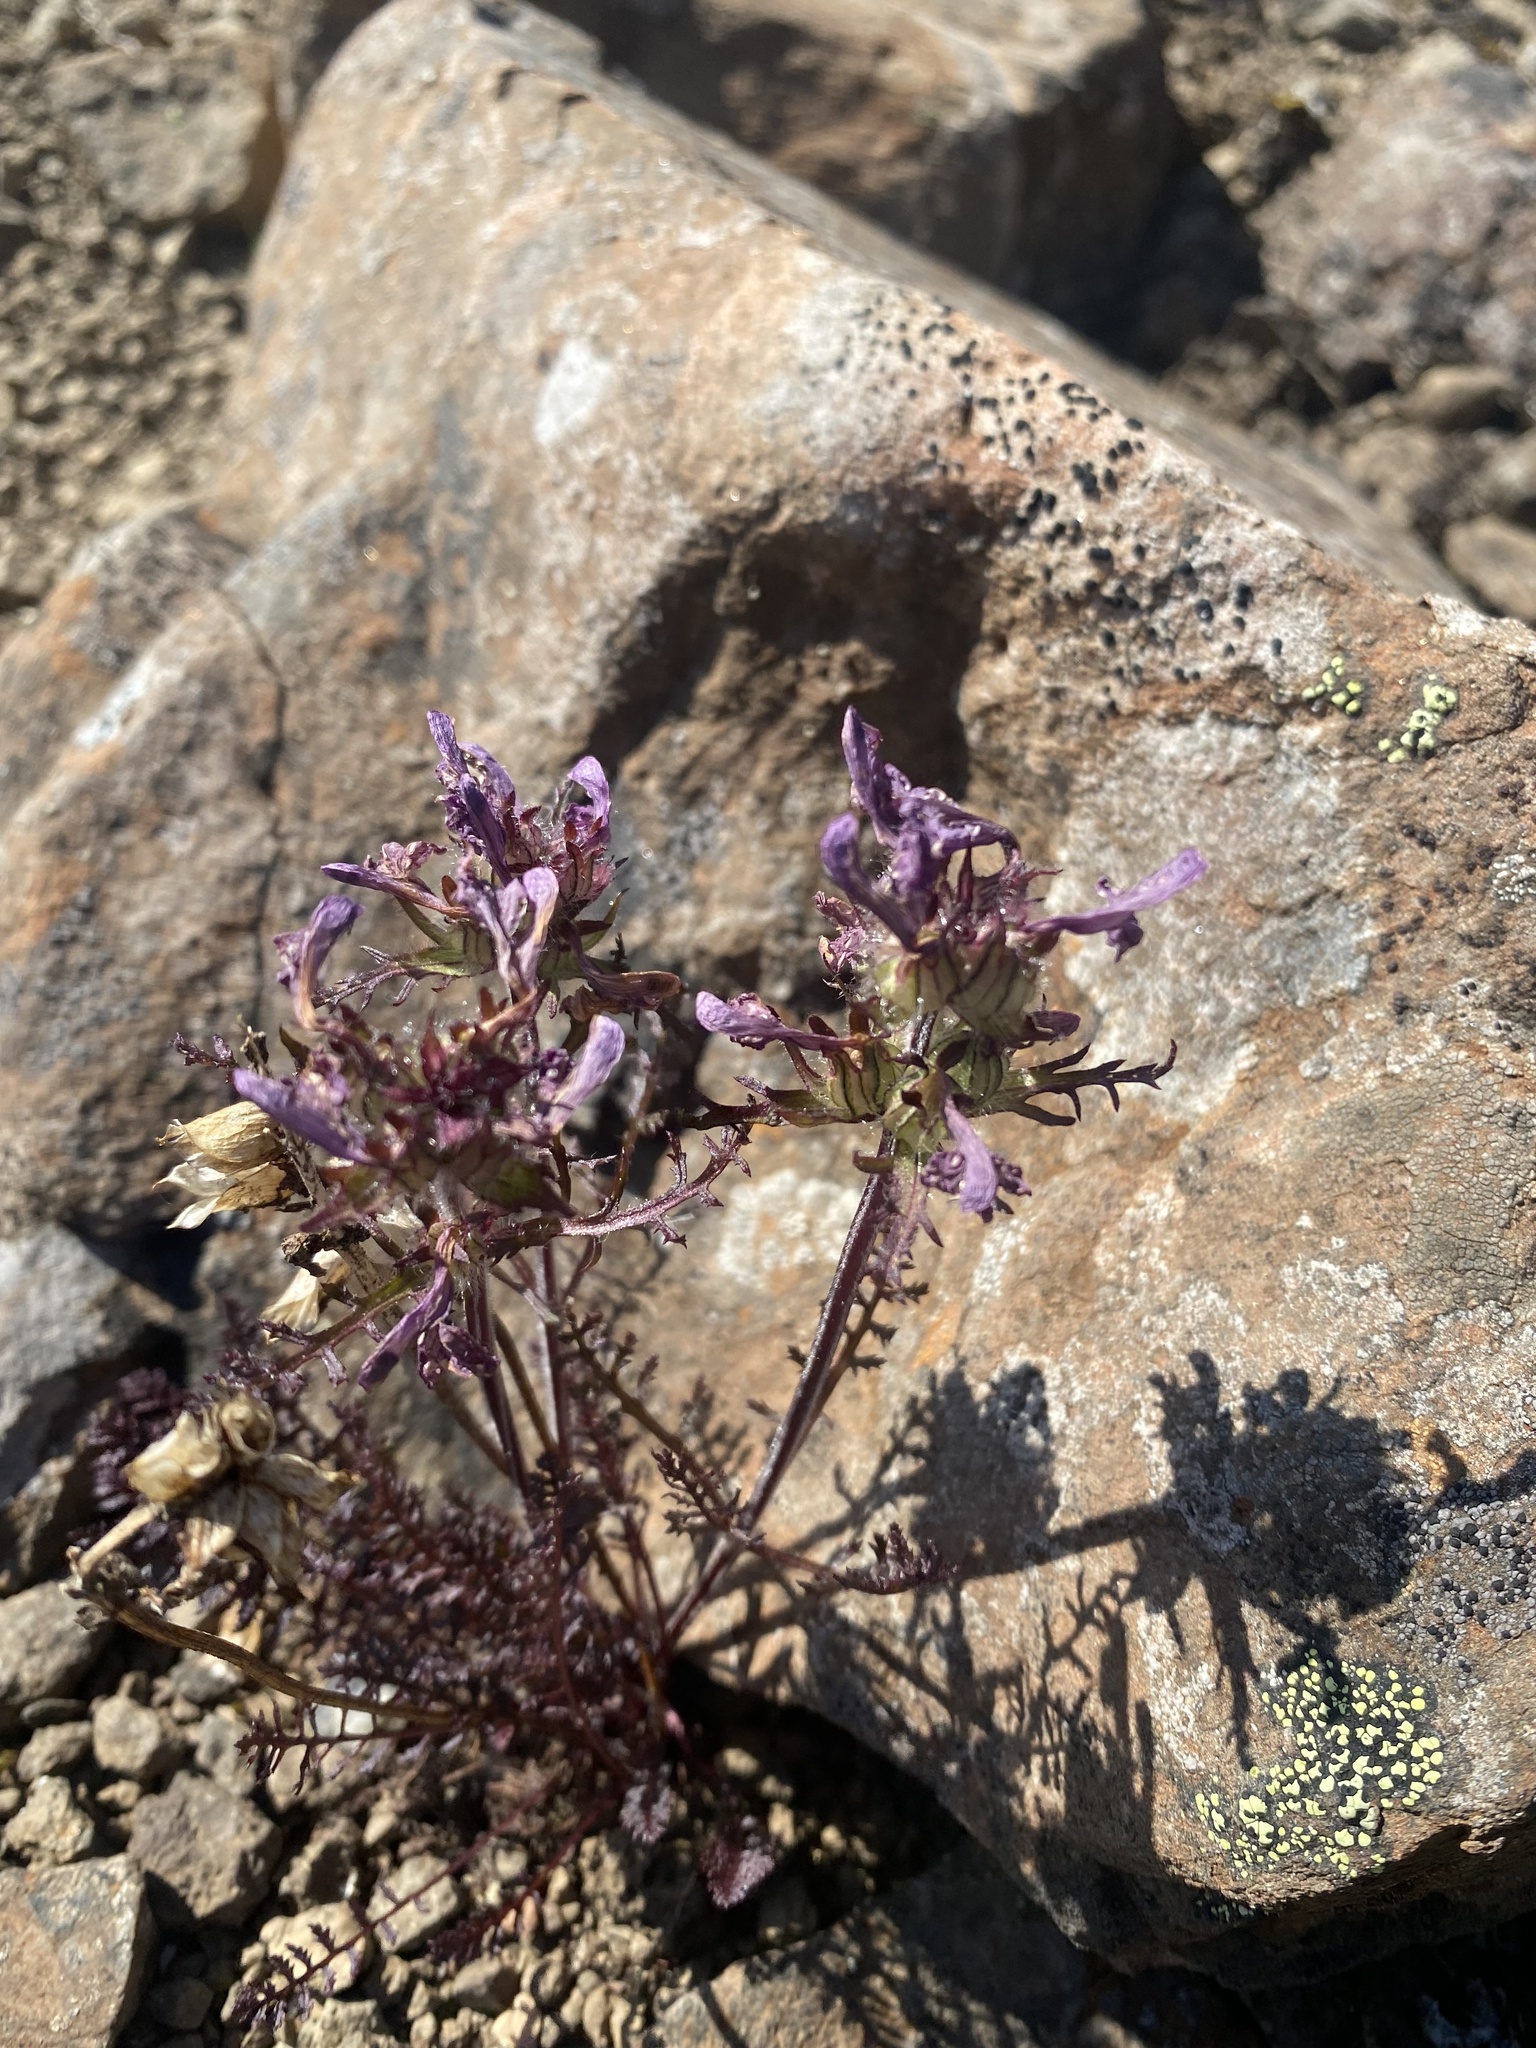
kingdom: Plantae
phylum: Tracheophyta
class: Magnoliopsida
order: Lamiales
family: Orobanchaceae
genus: Pedicularis
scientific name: Pedicularis amoena
